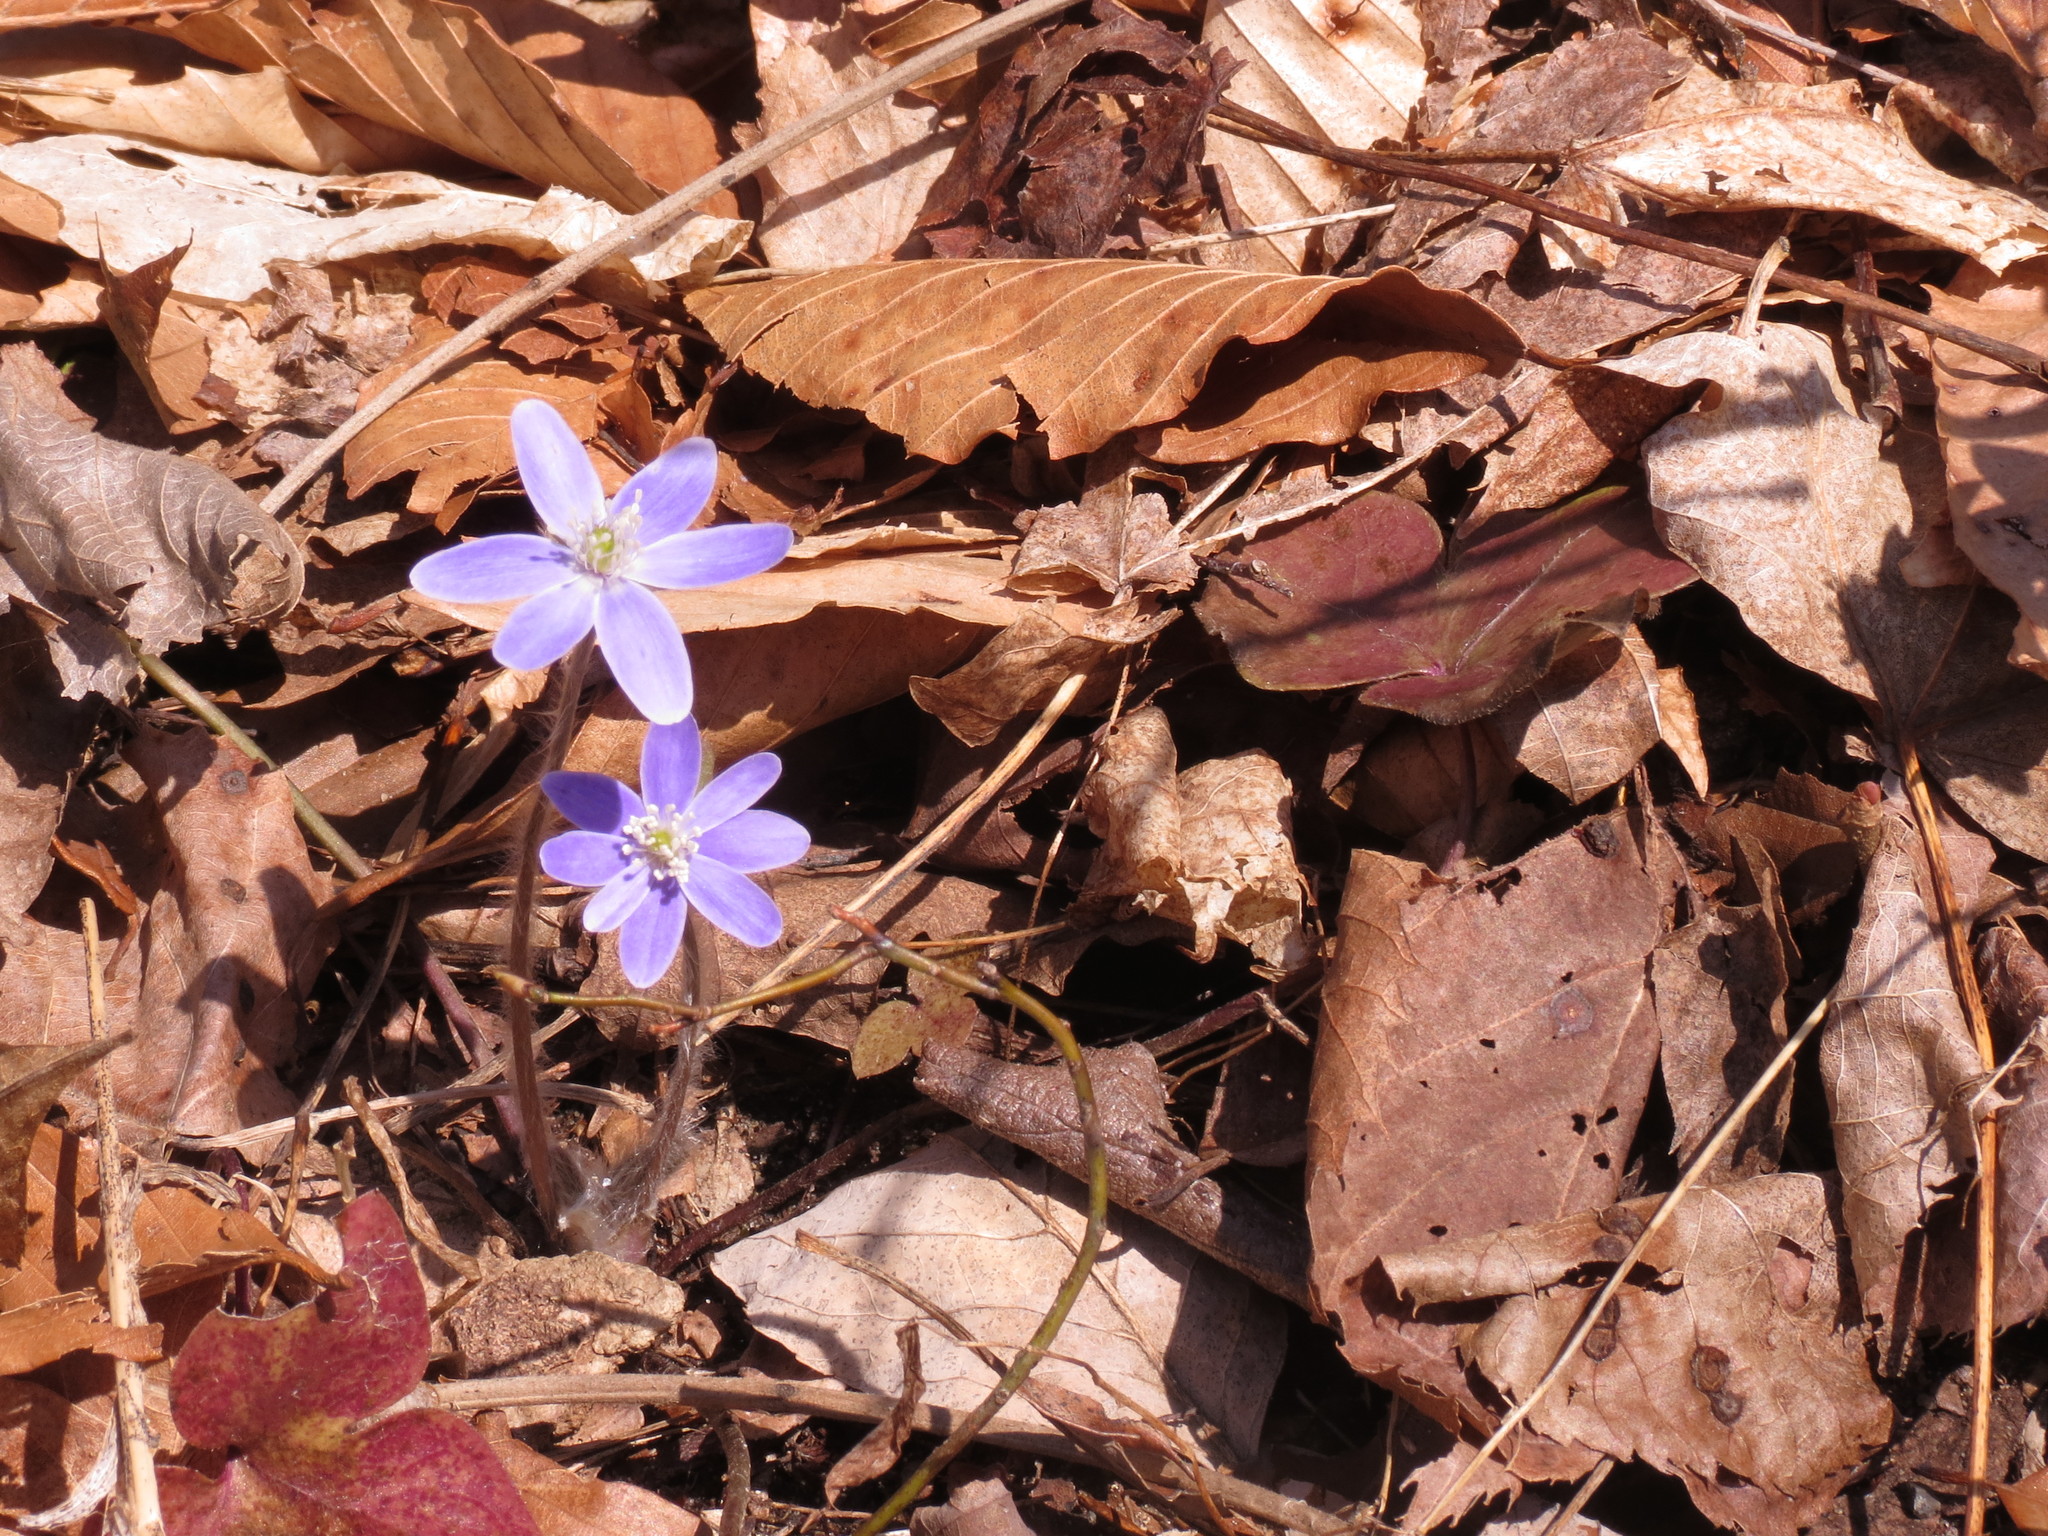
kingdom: Plantae
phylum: Tracheophyta
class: Magnoliopsida
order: Ranunculales
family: Ranunculaceae
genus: Hepatica
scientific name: Hepatica acutiloba
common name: Sharp-lobed hepatica
